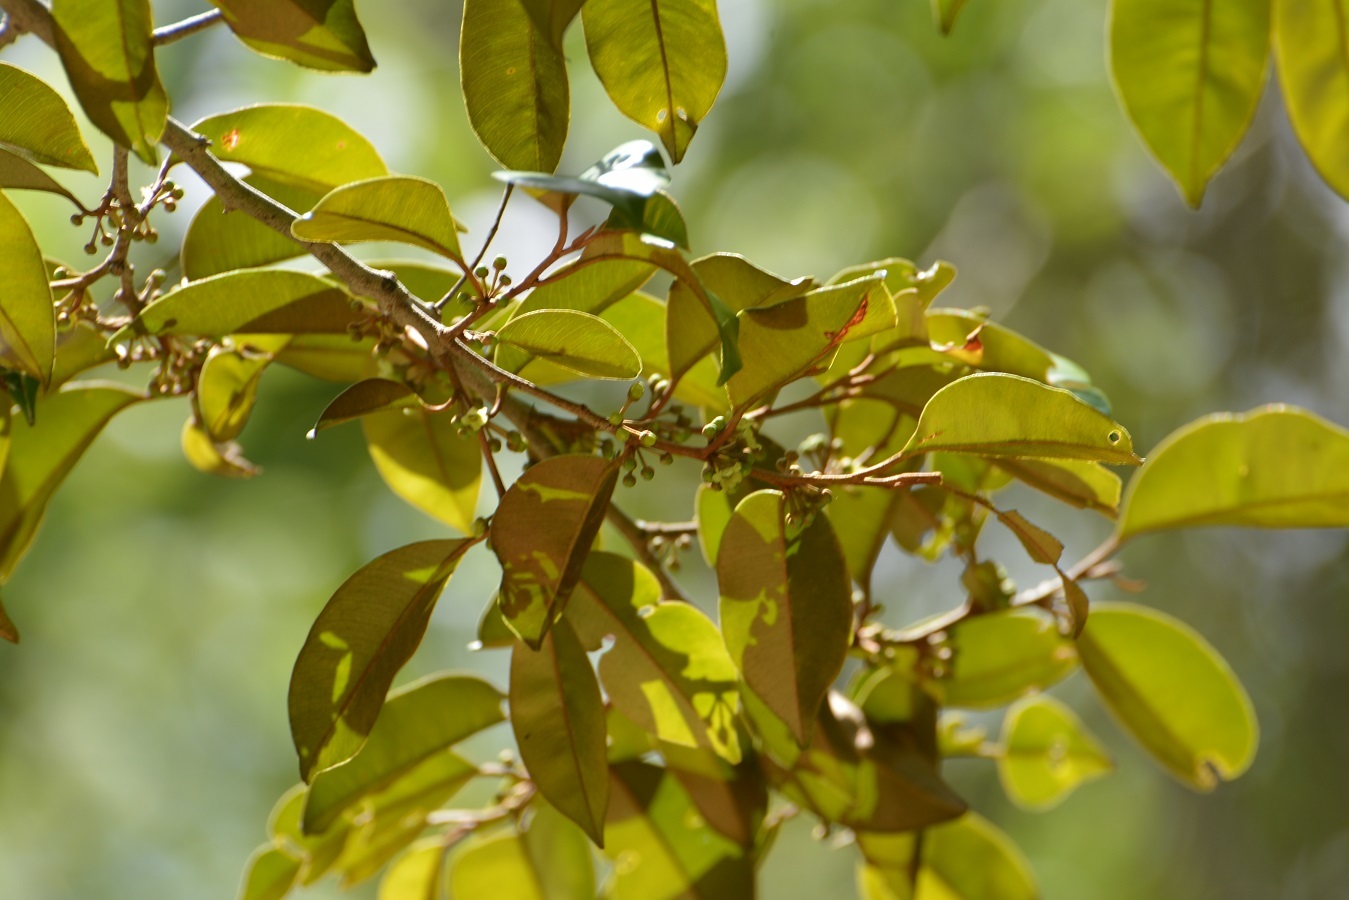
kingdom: Plantae
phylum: Tracheophyta
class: Magnoliopsida
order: Ericales
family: Sapotaceae
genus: Chrysophyllum
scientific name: Chrysophyllum mexicanum
